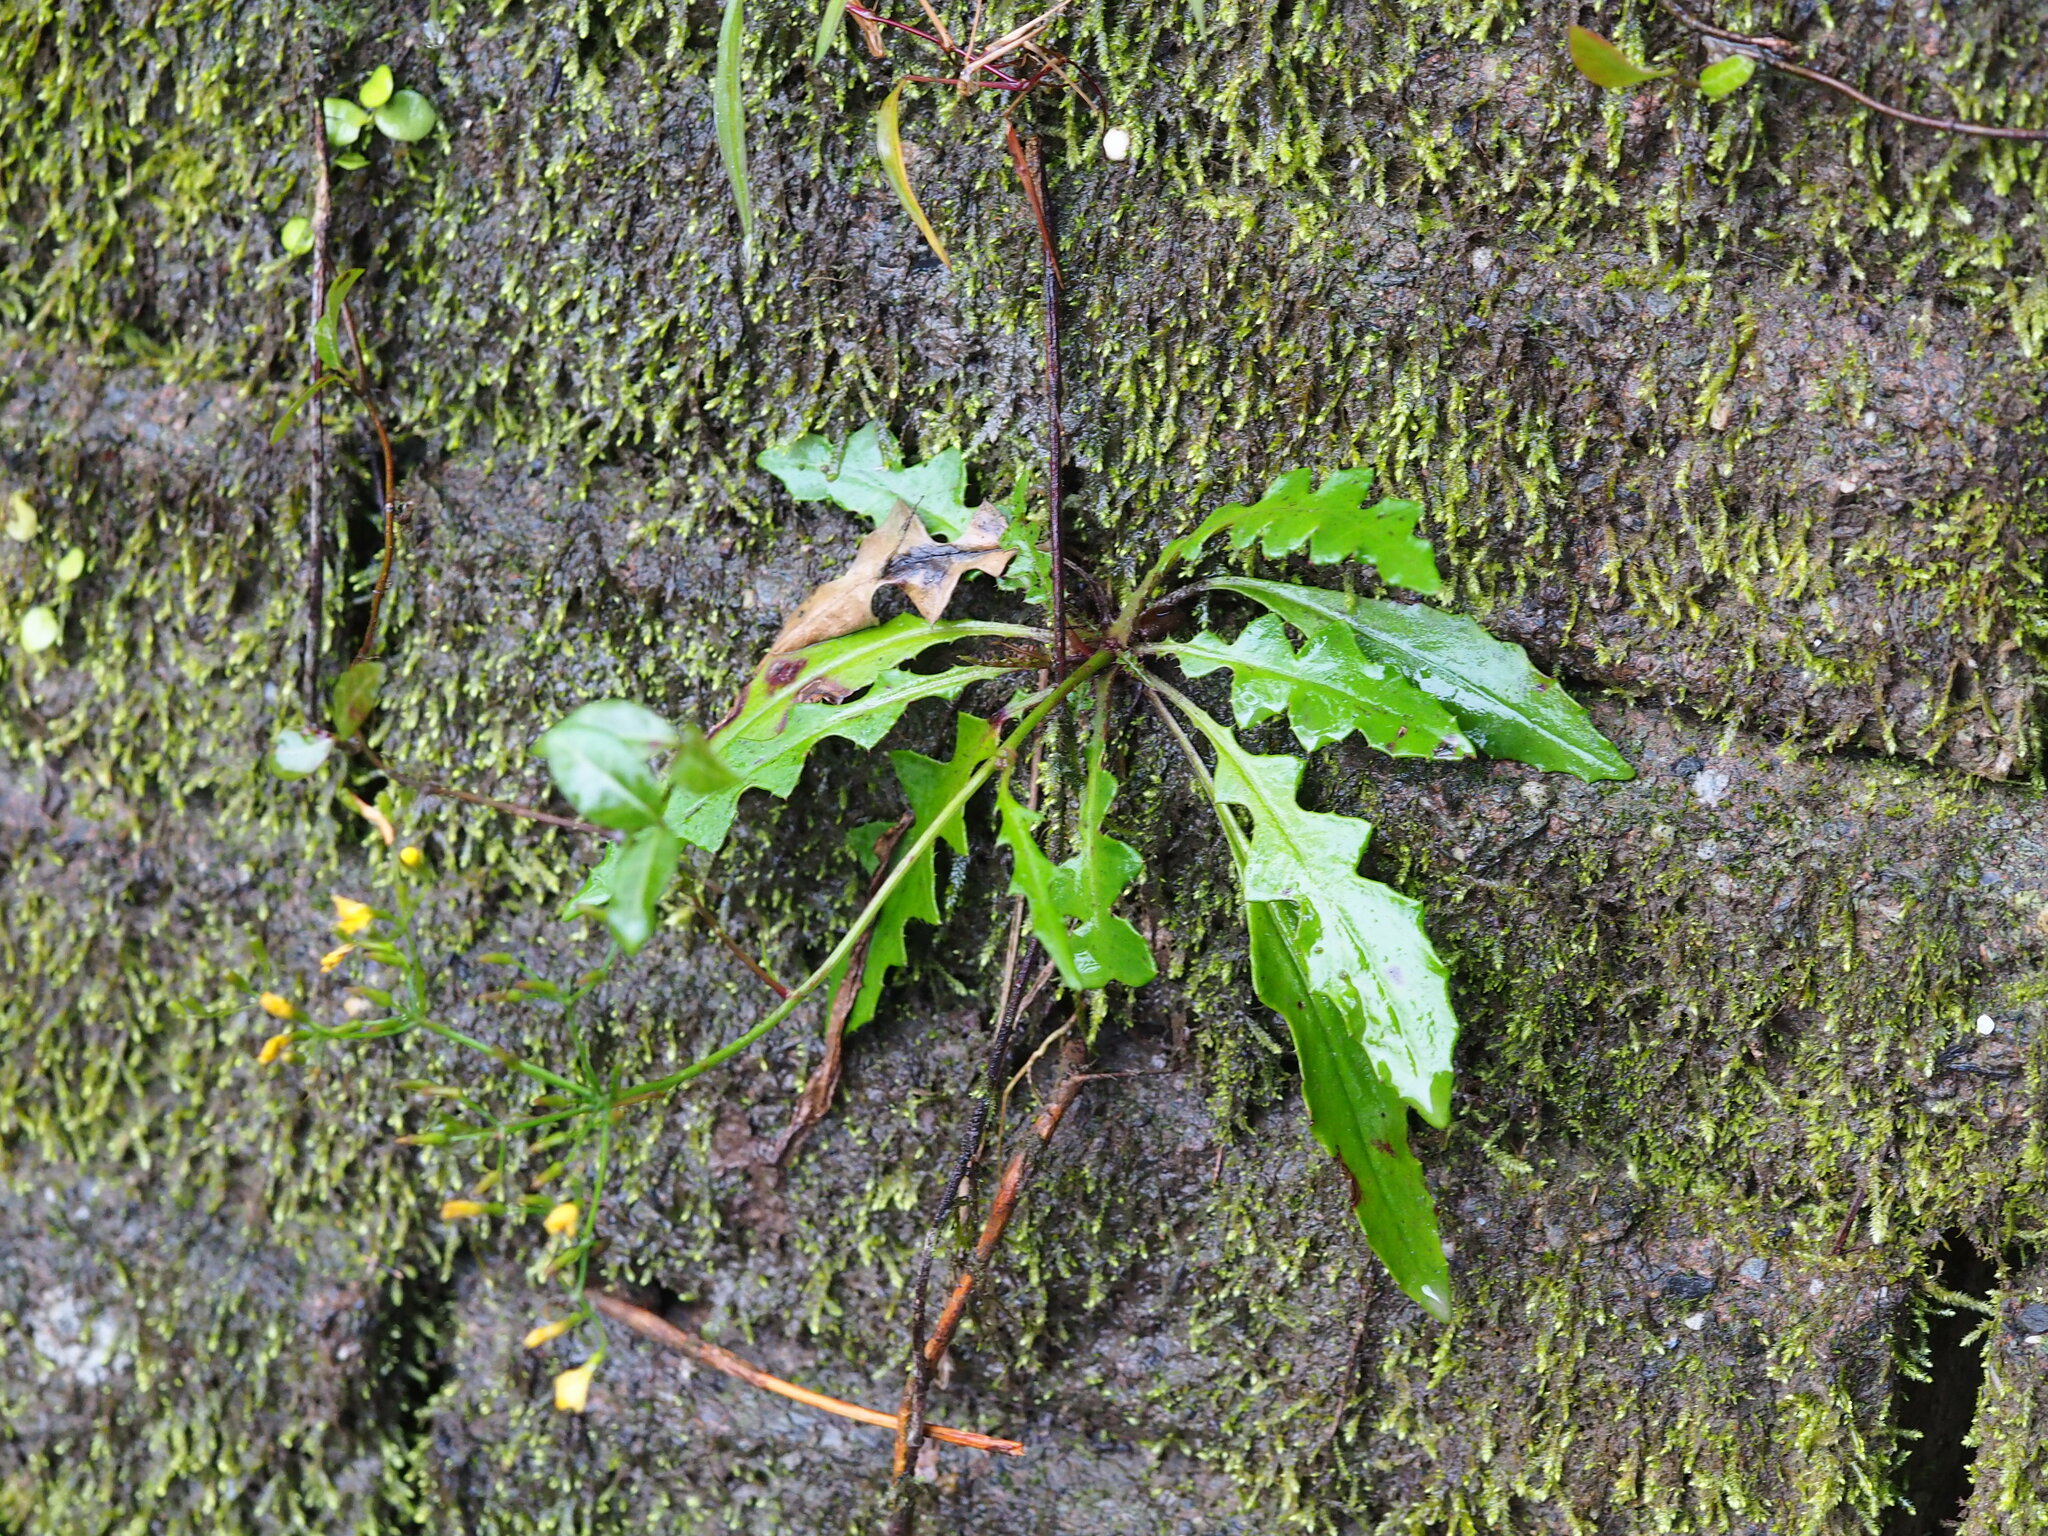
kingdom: Plantae
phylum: Tracheophyta
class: Magnoliopsida
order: Asterales
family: Asteraceae
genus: Ixeridium
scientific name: Ixeridium laevigatum
